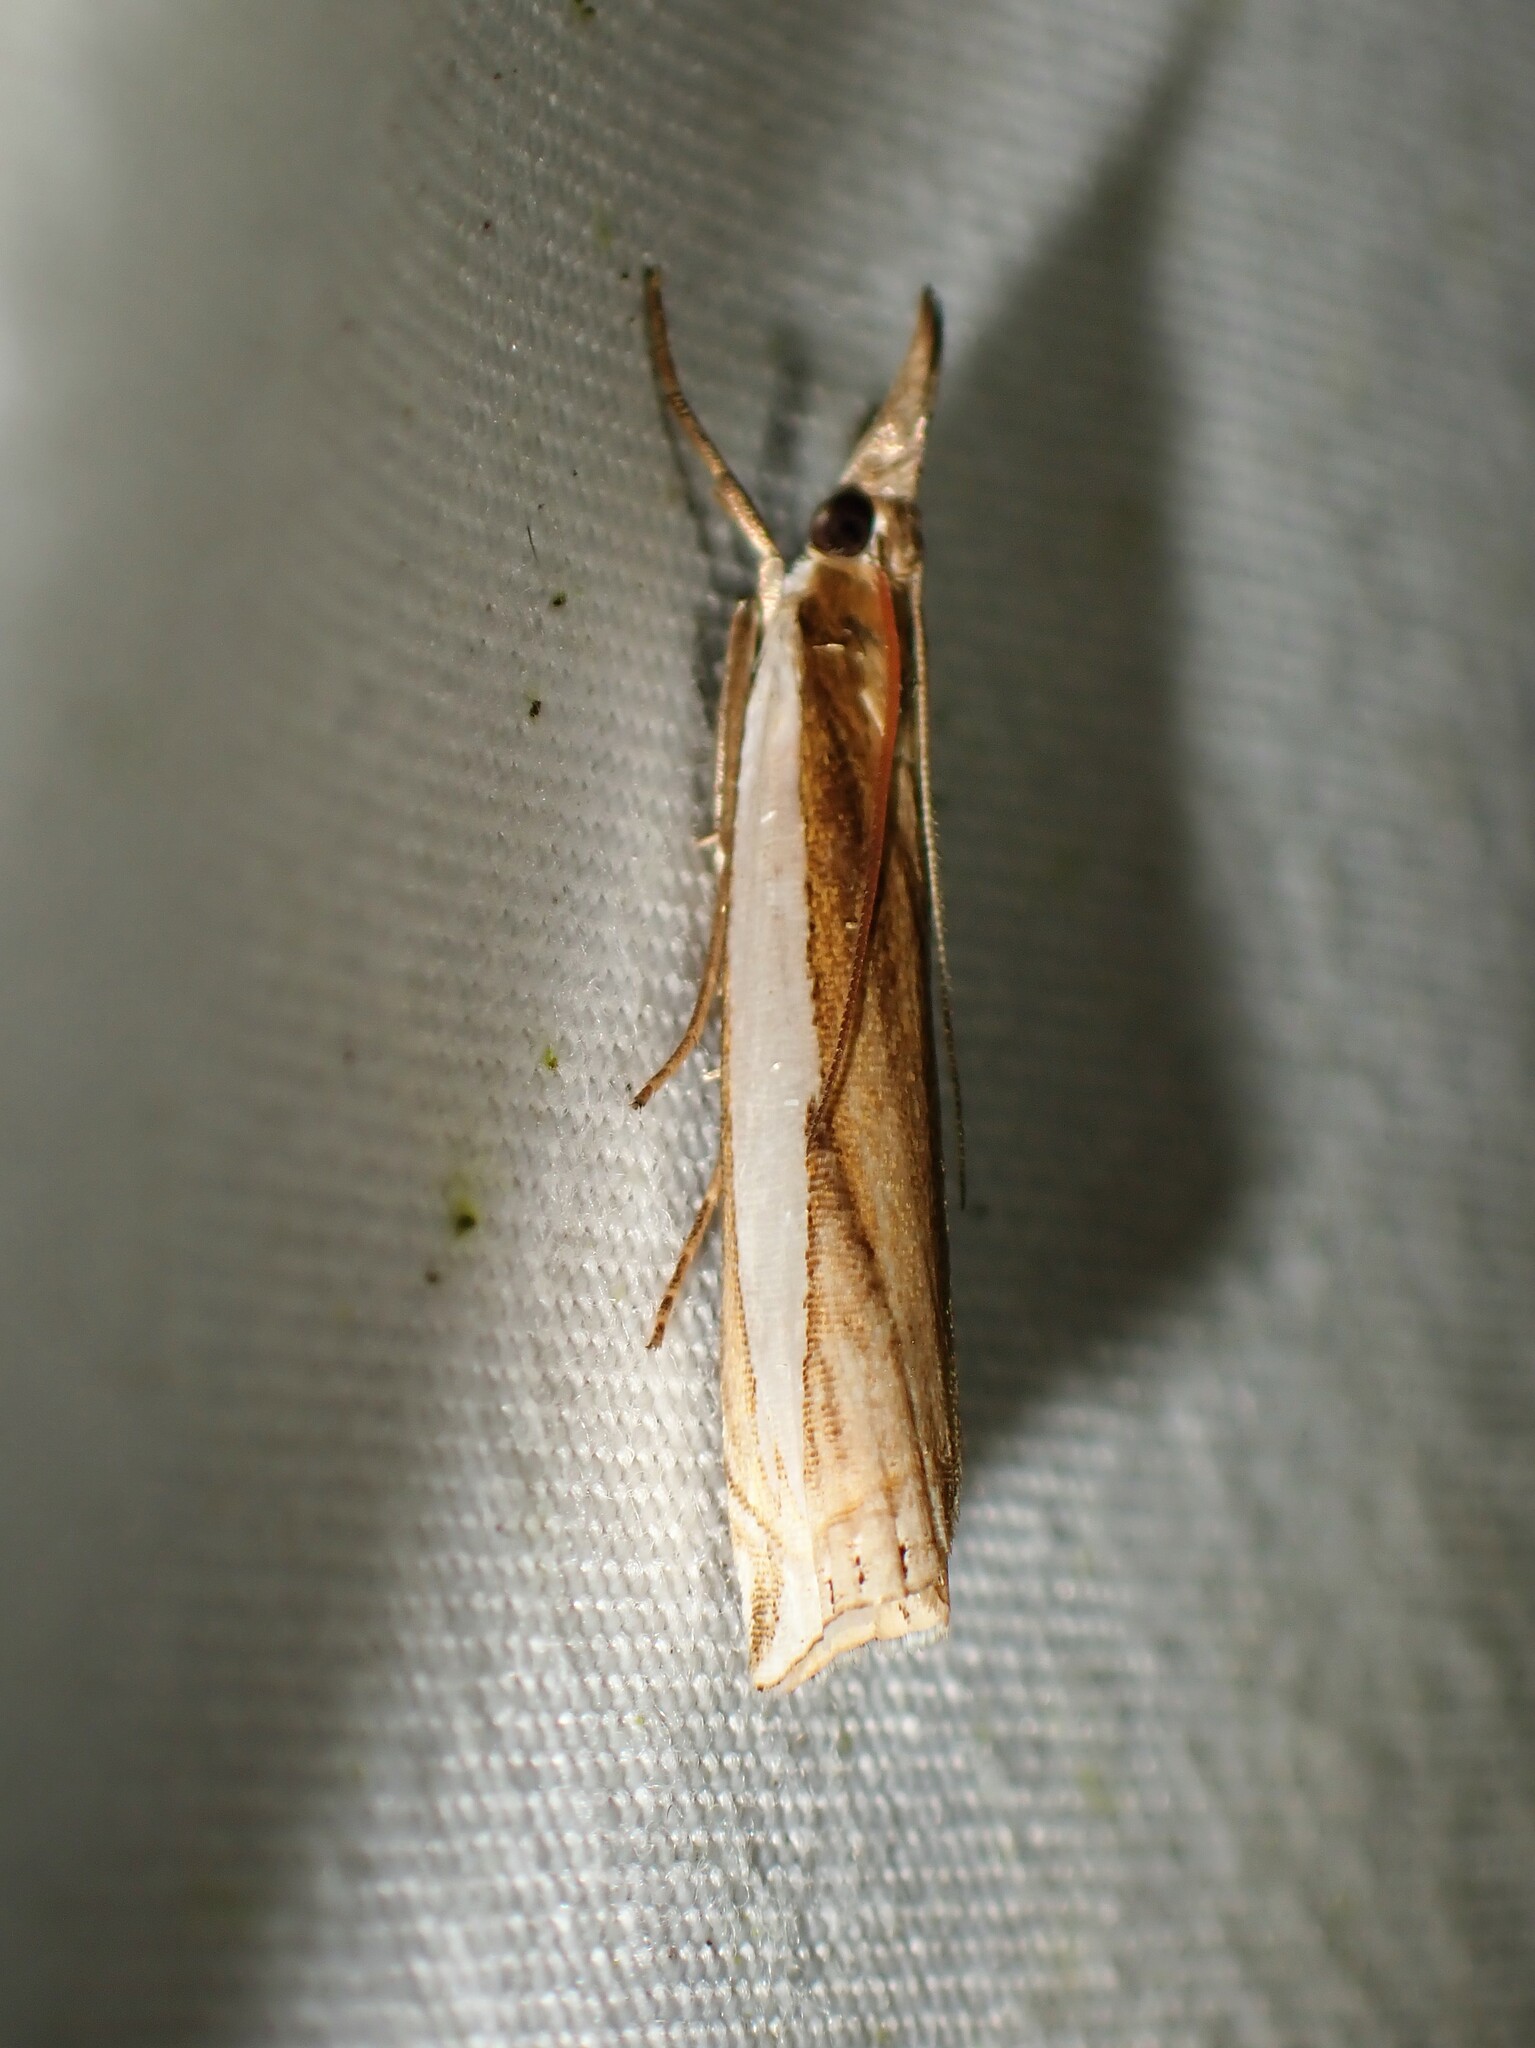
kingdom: Animalia
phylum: Arthropoda
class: Insecta
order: Lepidoptera
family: Crambidae
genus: Crambus
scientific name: Crambus leachellus
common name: Leach's grass-veneer
